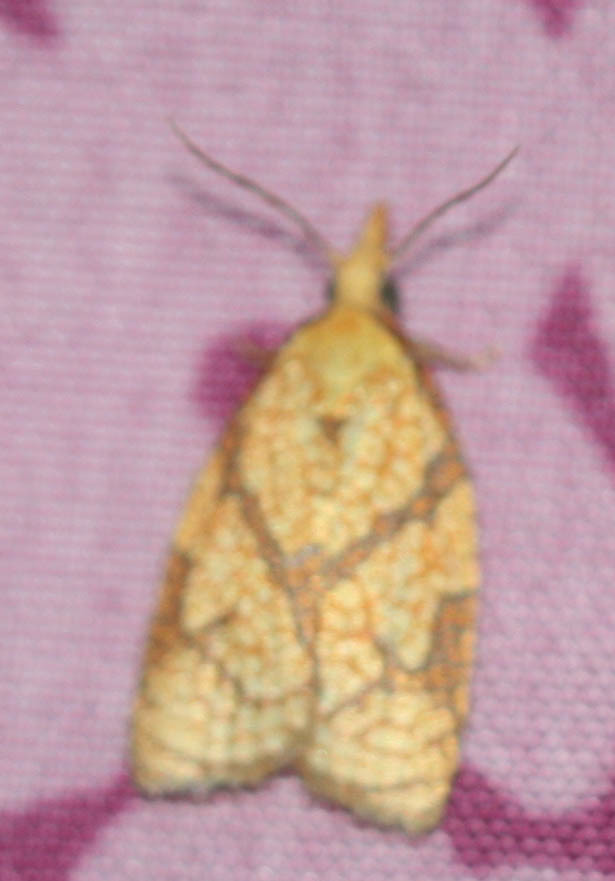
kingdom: Animalia
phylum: Arthropoda
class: Insecta
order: Lepidoptera
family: Tortricidae
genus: Cenopis
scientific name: Cenopis reticulatana
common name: Reticulated fruitworm moth
